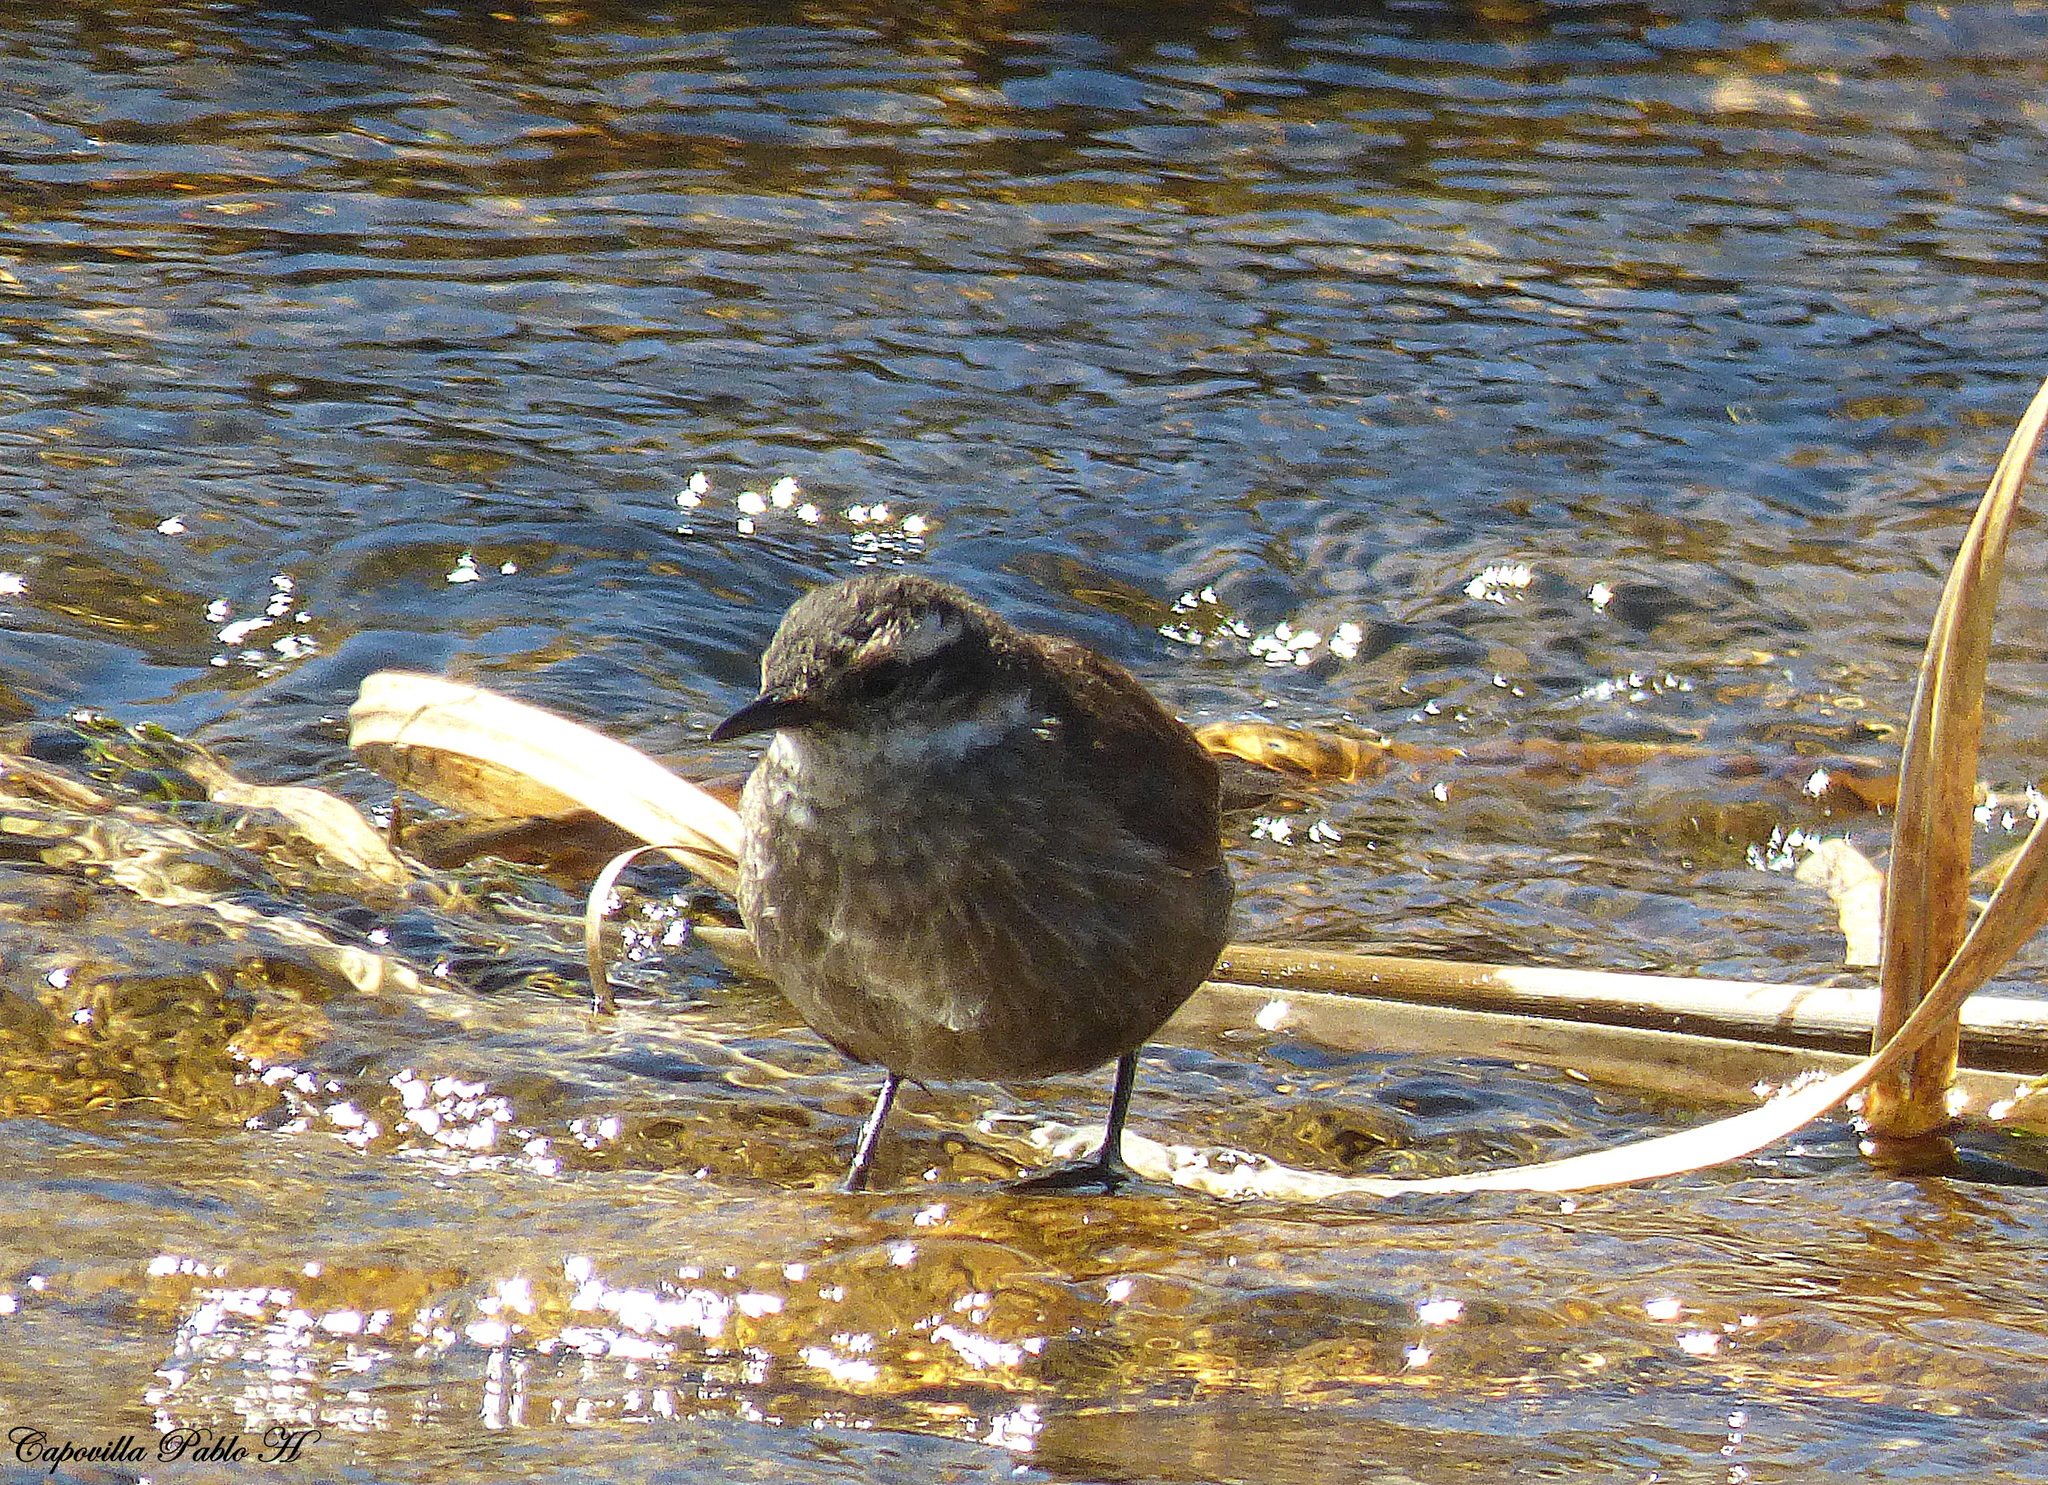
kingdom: Animalia
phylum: Chordata
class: Aves
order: Passeriformes
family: Furnariidae
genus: Cinclodes
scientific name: Cinclodes olrogi
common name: Olrog's cinclodes
